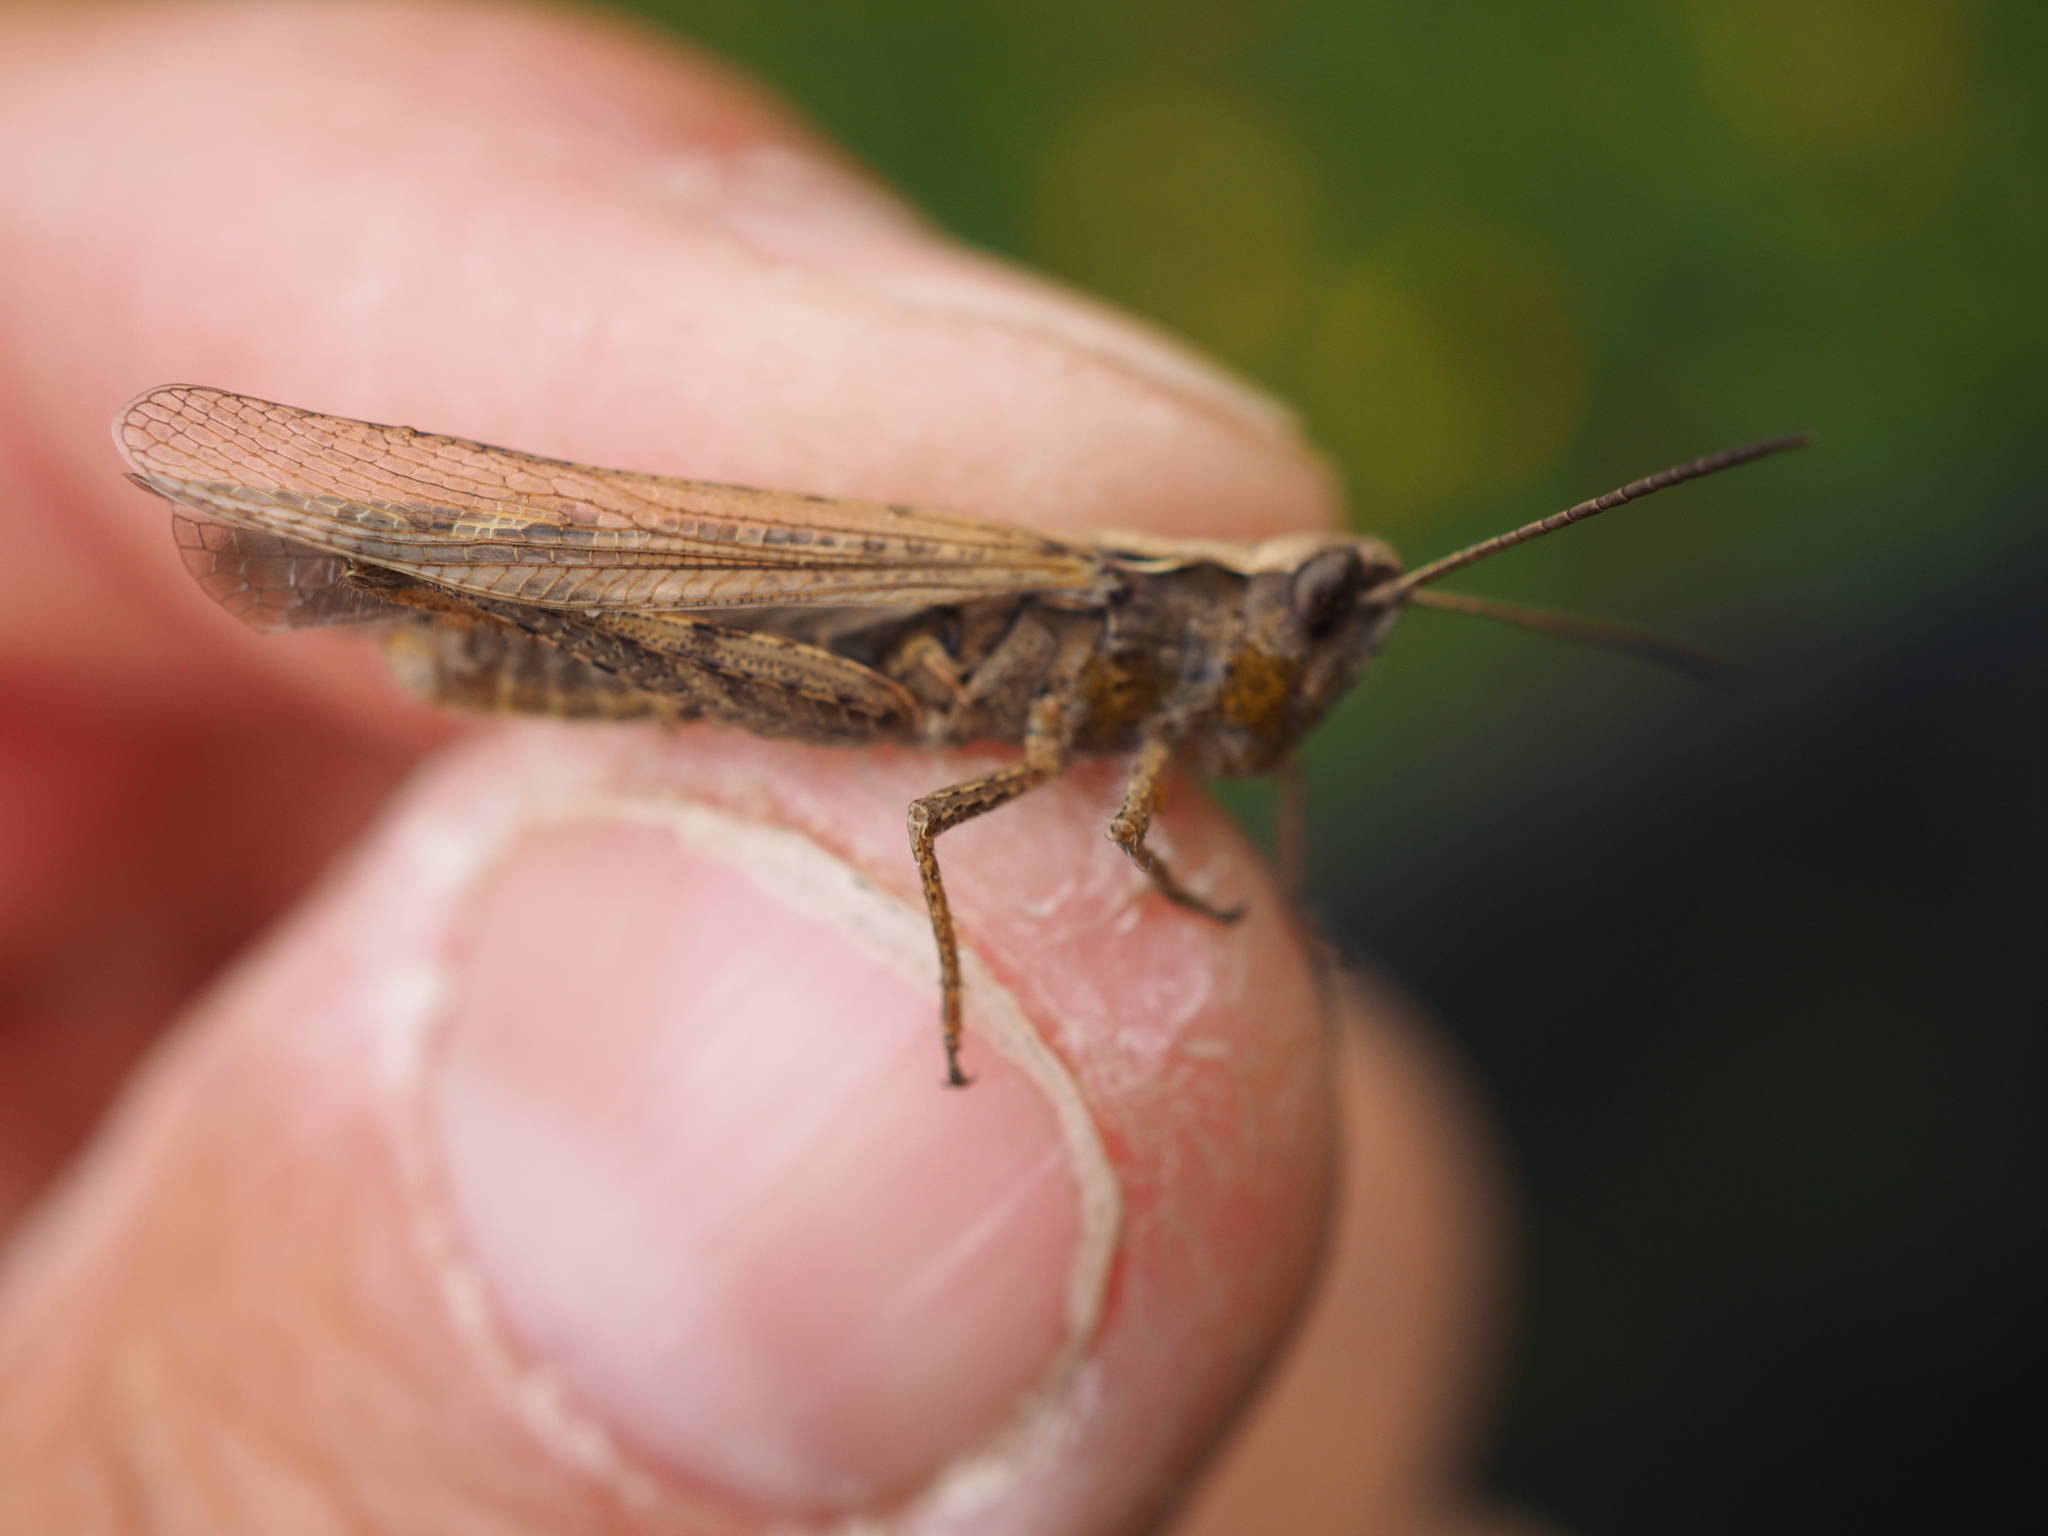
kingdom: Animalia
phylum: Arthropoda
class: Insecta
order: Orthoptera
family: Acrididae
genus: Chorthippus
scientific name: Chorthippus brunneus
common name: Field grasshopper
